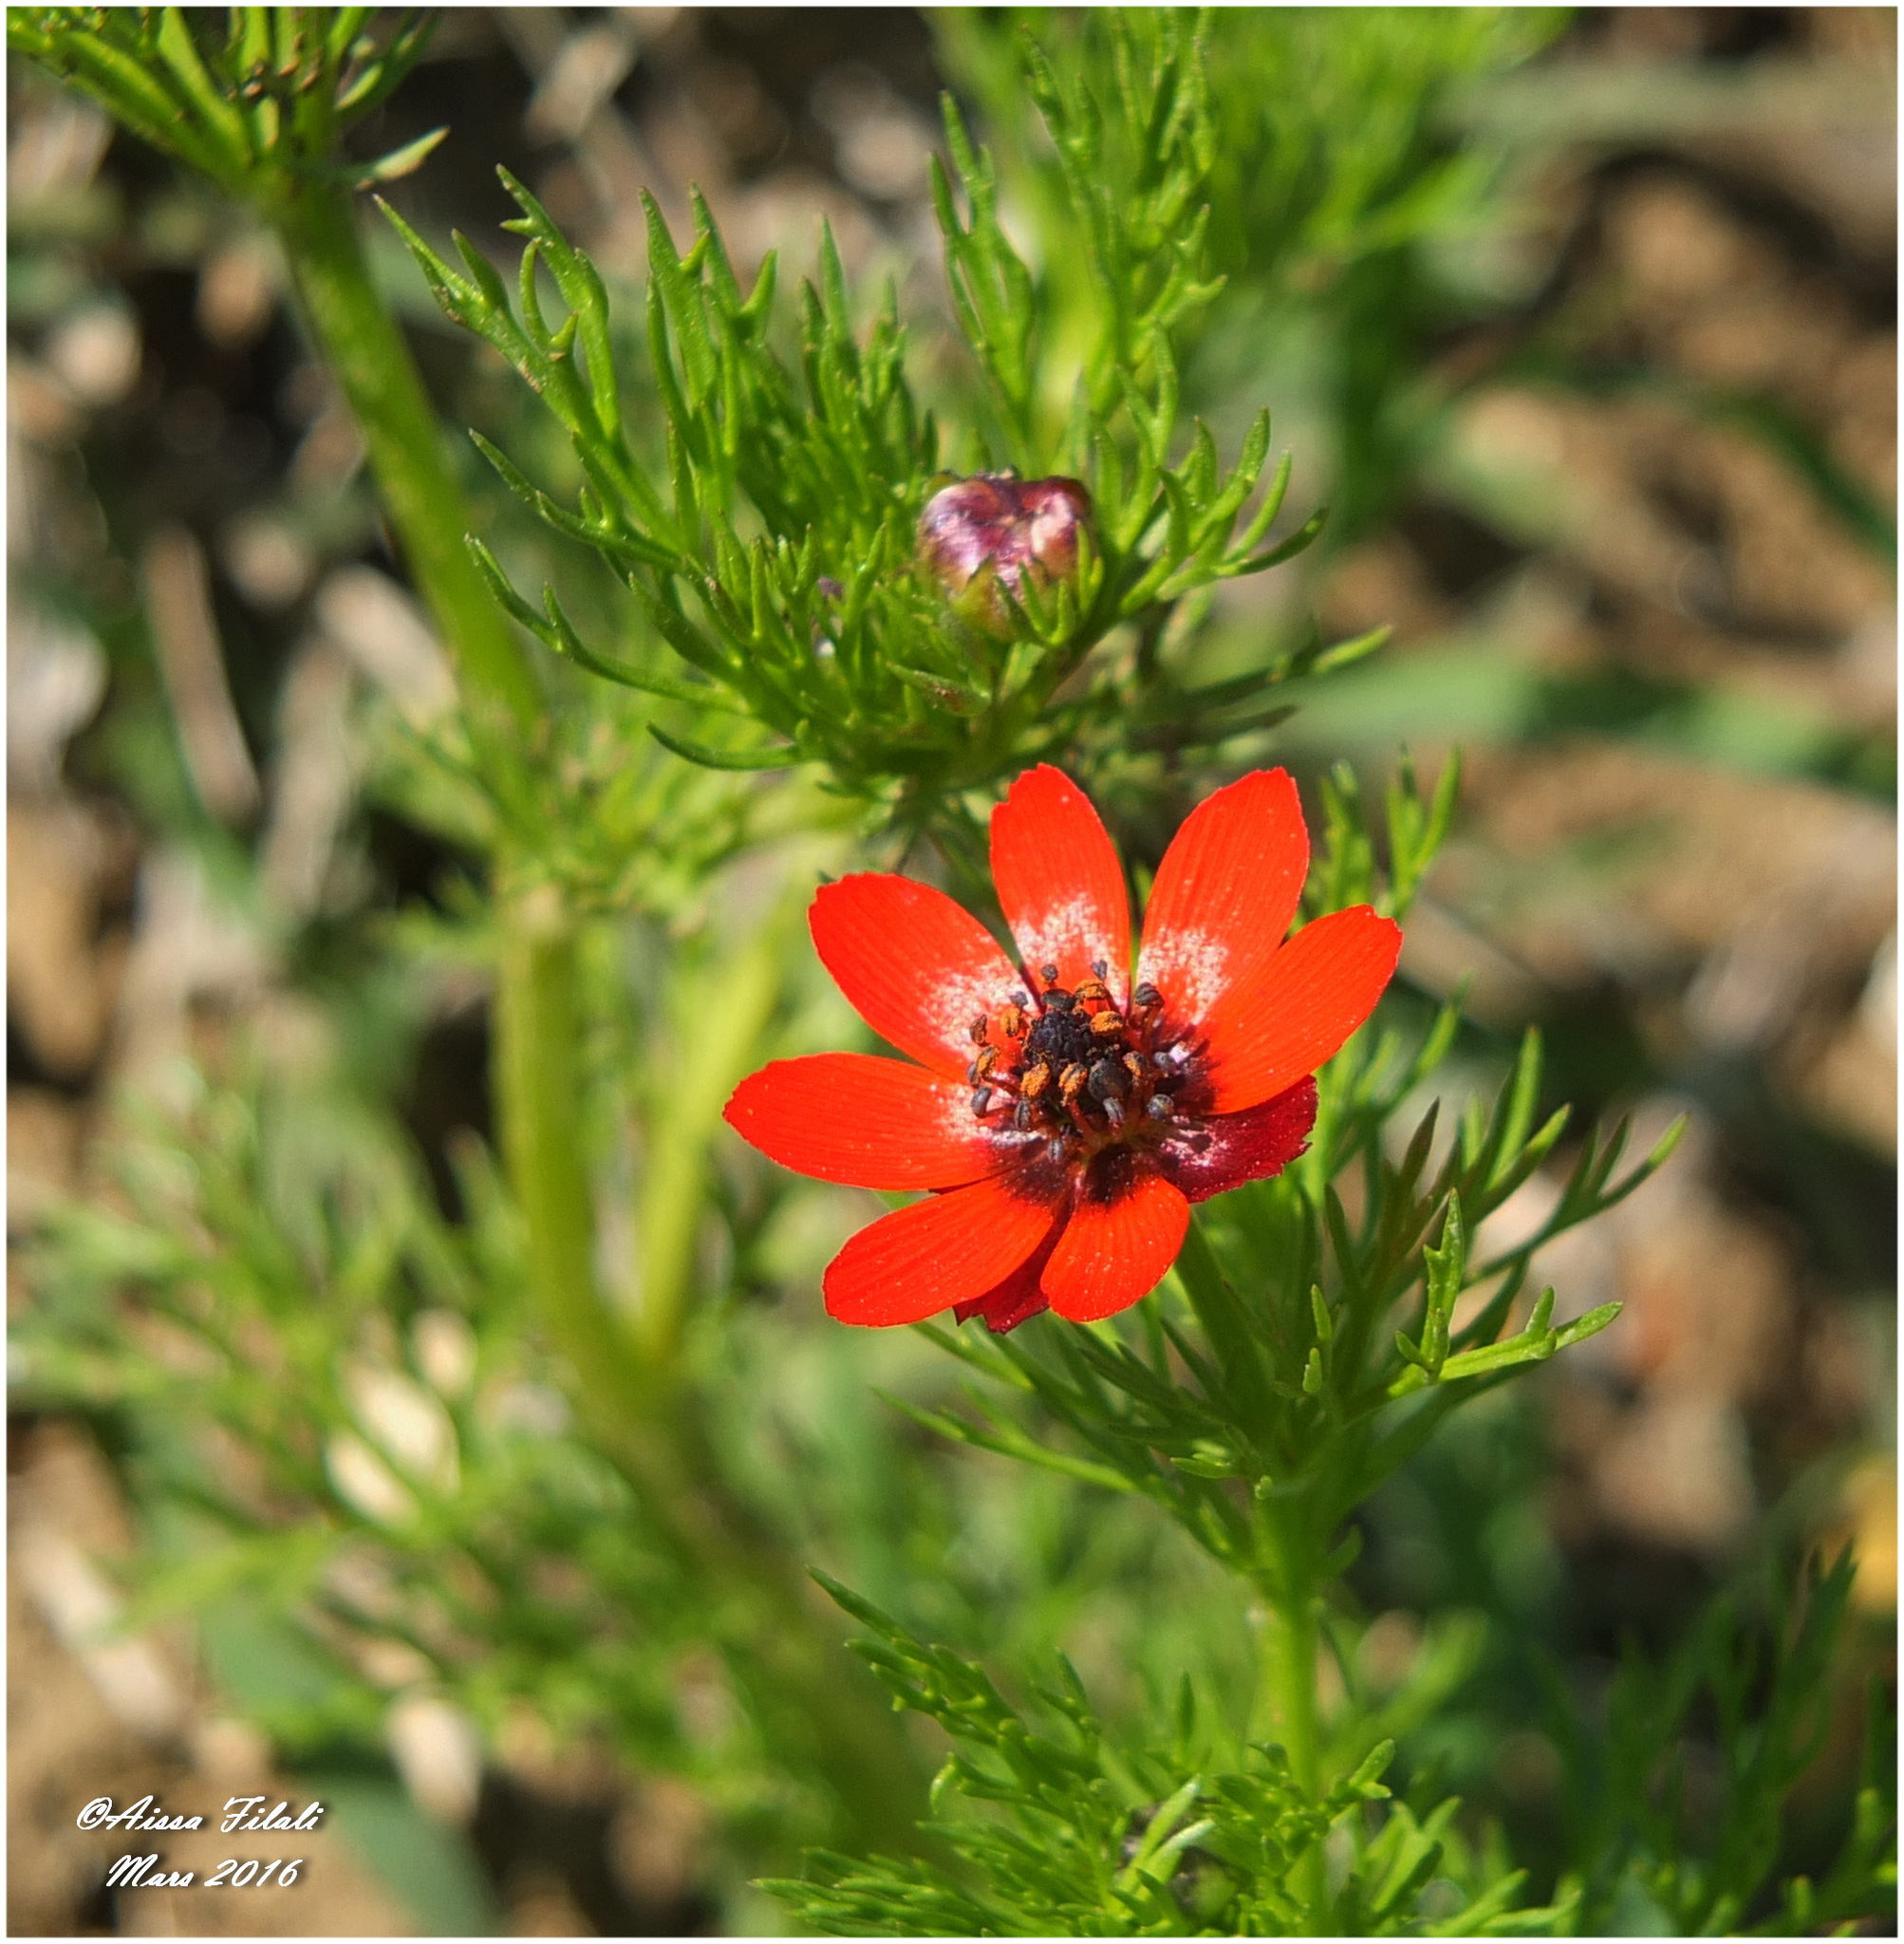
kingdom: Plantae
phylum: Tracheophyta
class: Magnoliopsida
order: Ranunculales
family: Ranunculaceae
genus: Adonis
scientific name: Adonis annua
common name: Pheasant's-eye
